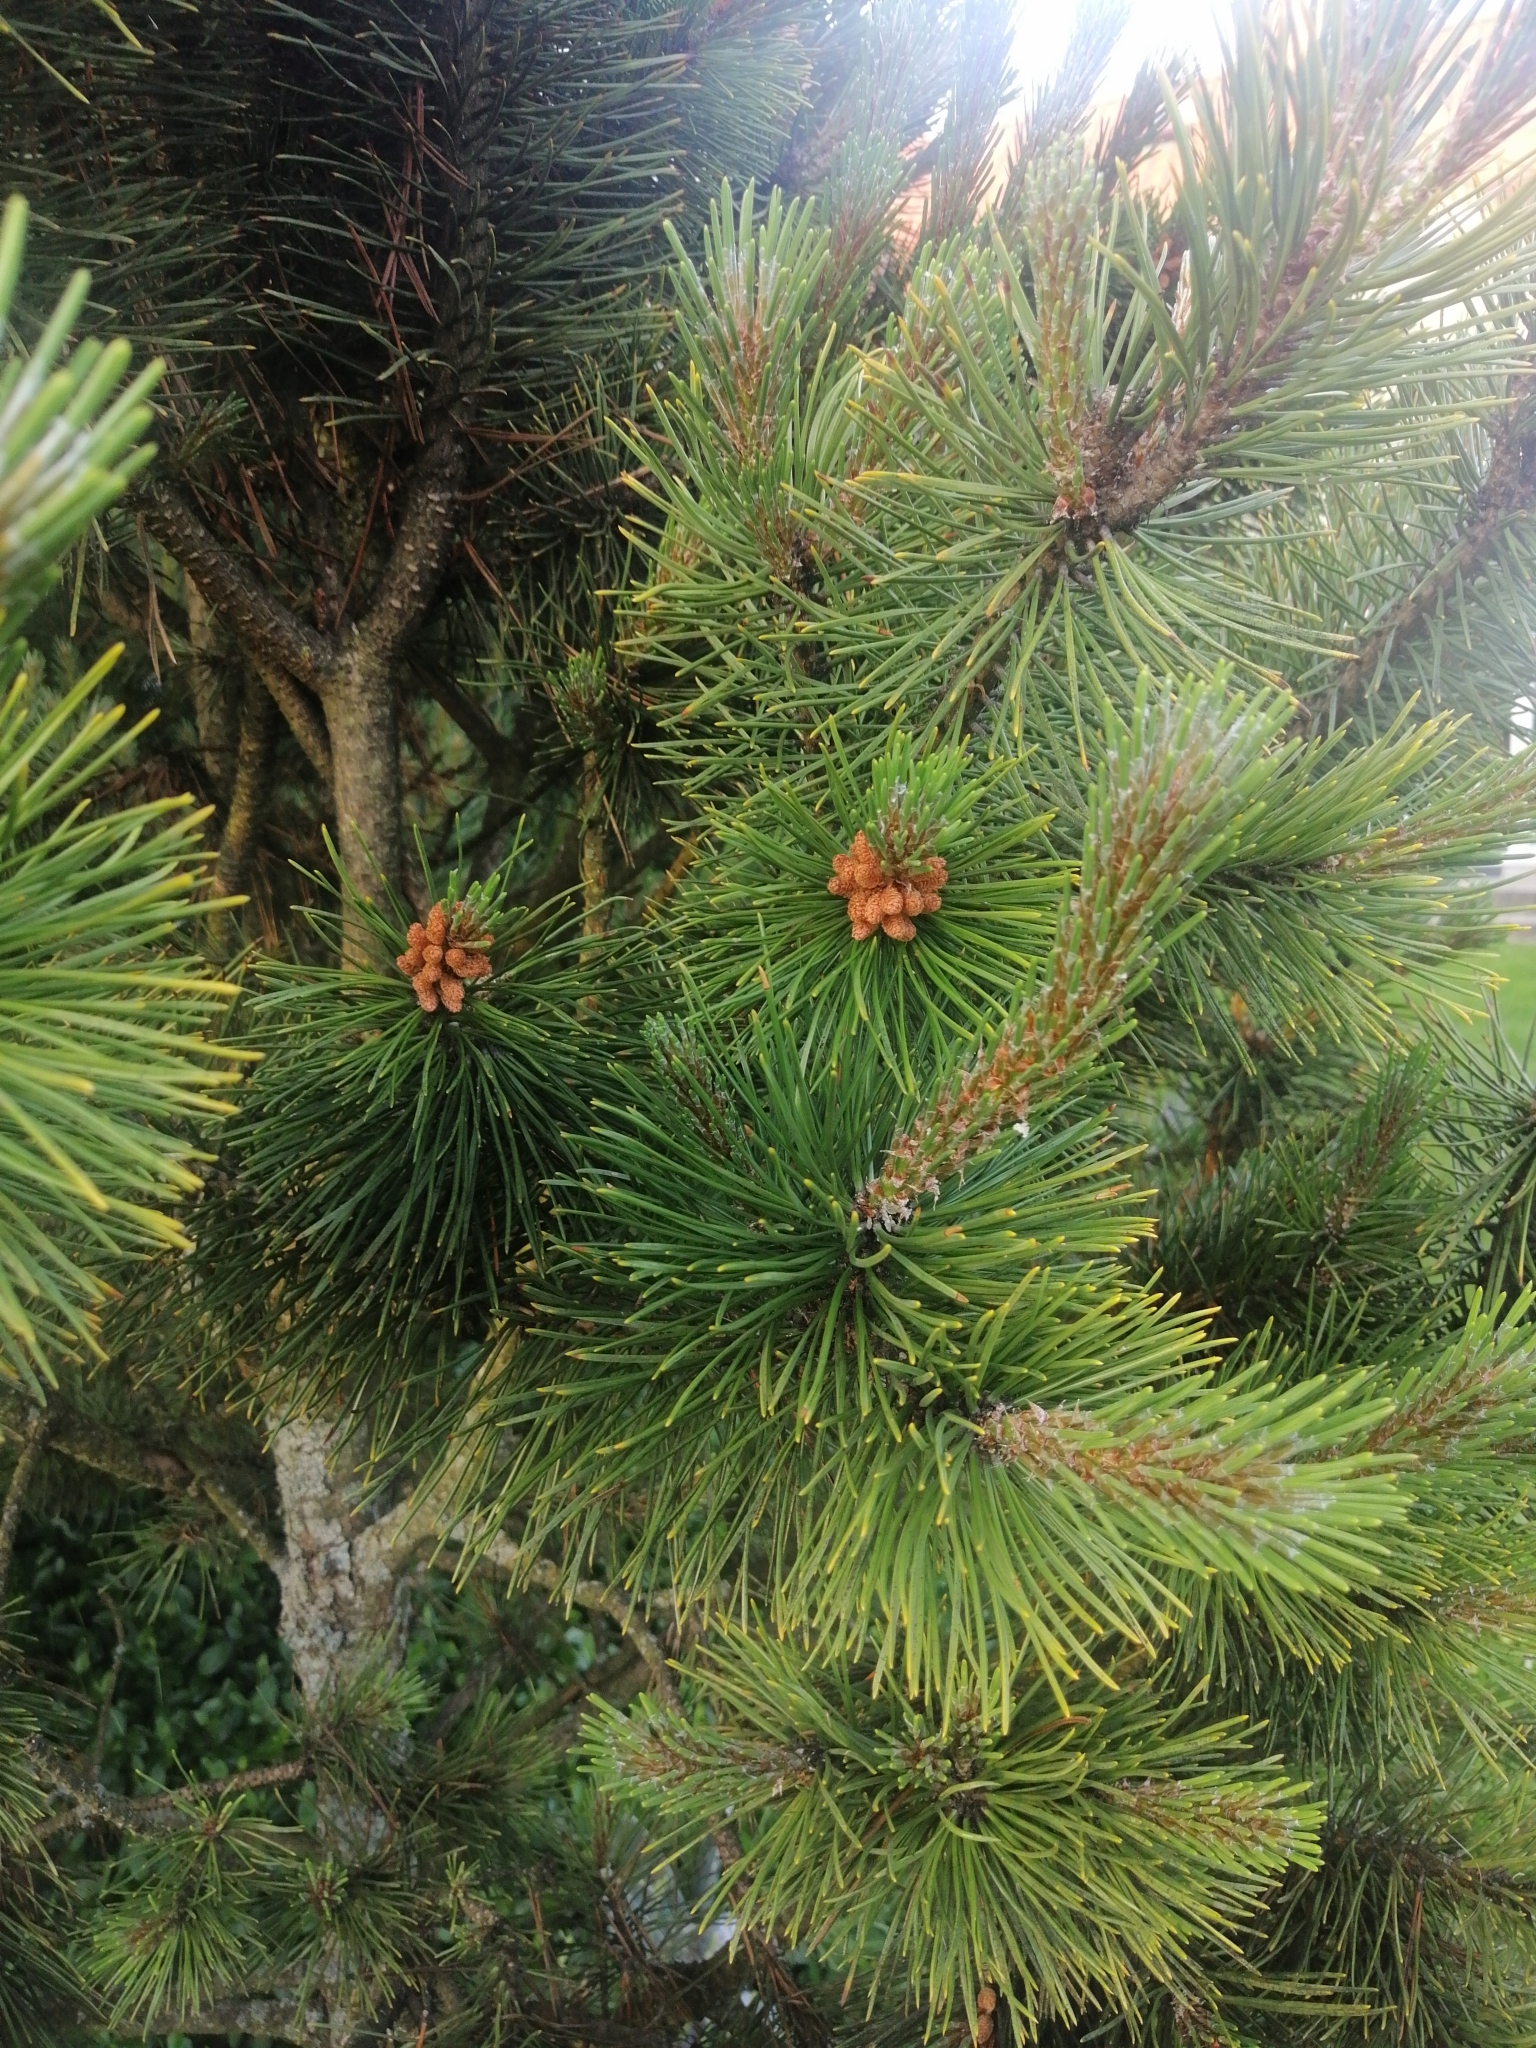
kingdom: Plantae
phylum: Tracheophyta
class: Pinopsida
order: Pinales
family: Pinaceae
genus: Pinus
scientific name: Pinus nigra
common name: Austrian pine
